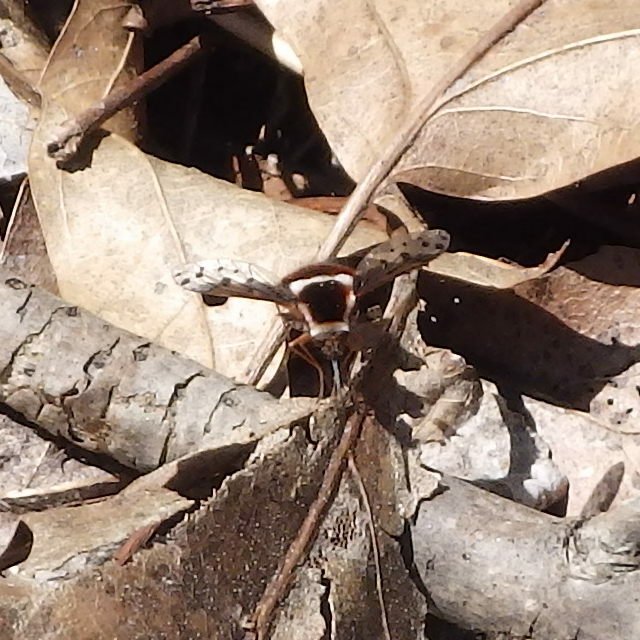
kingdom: Animalia
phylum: Arthropoda
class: Insecta
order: Diptera
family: Bombyliidae
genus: Bombylius
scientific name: Bombylius pygmaeus
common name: Pygmy bee fly
